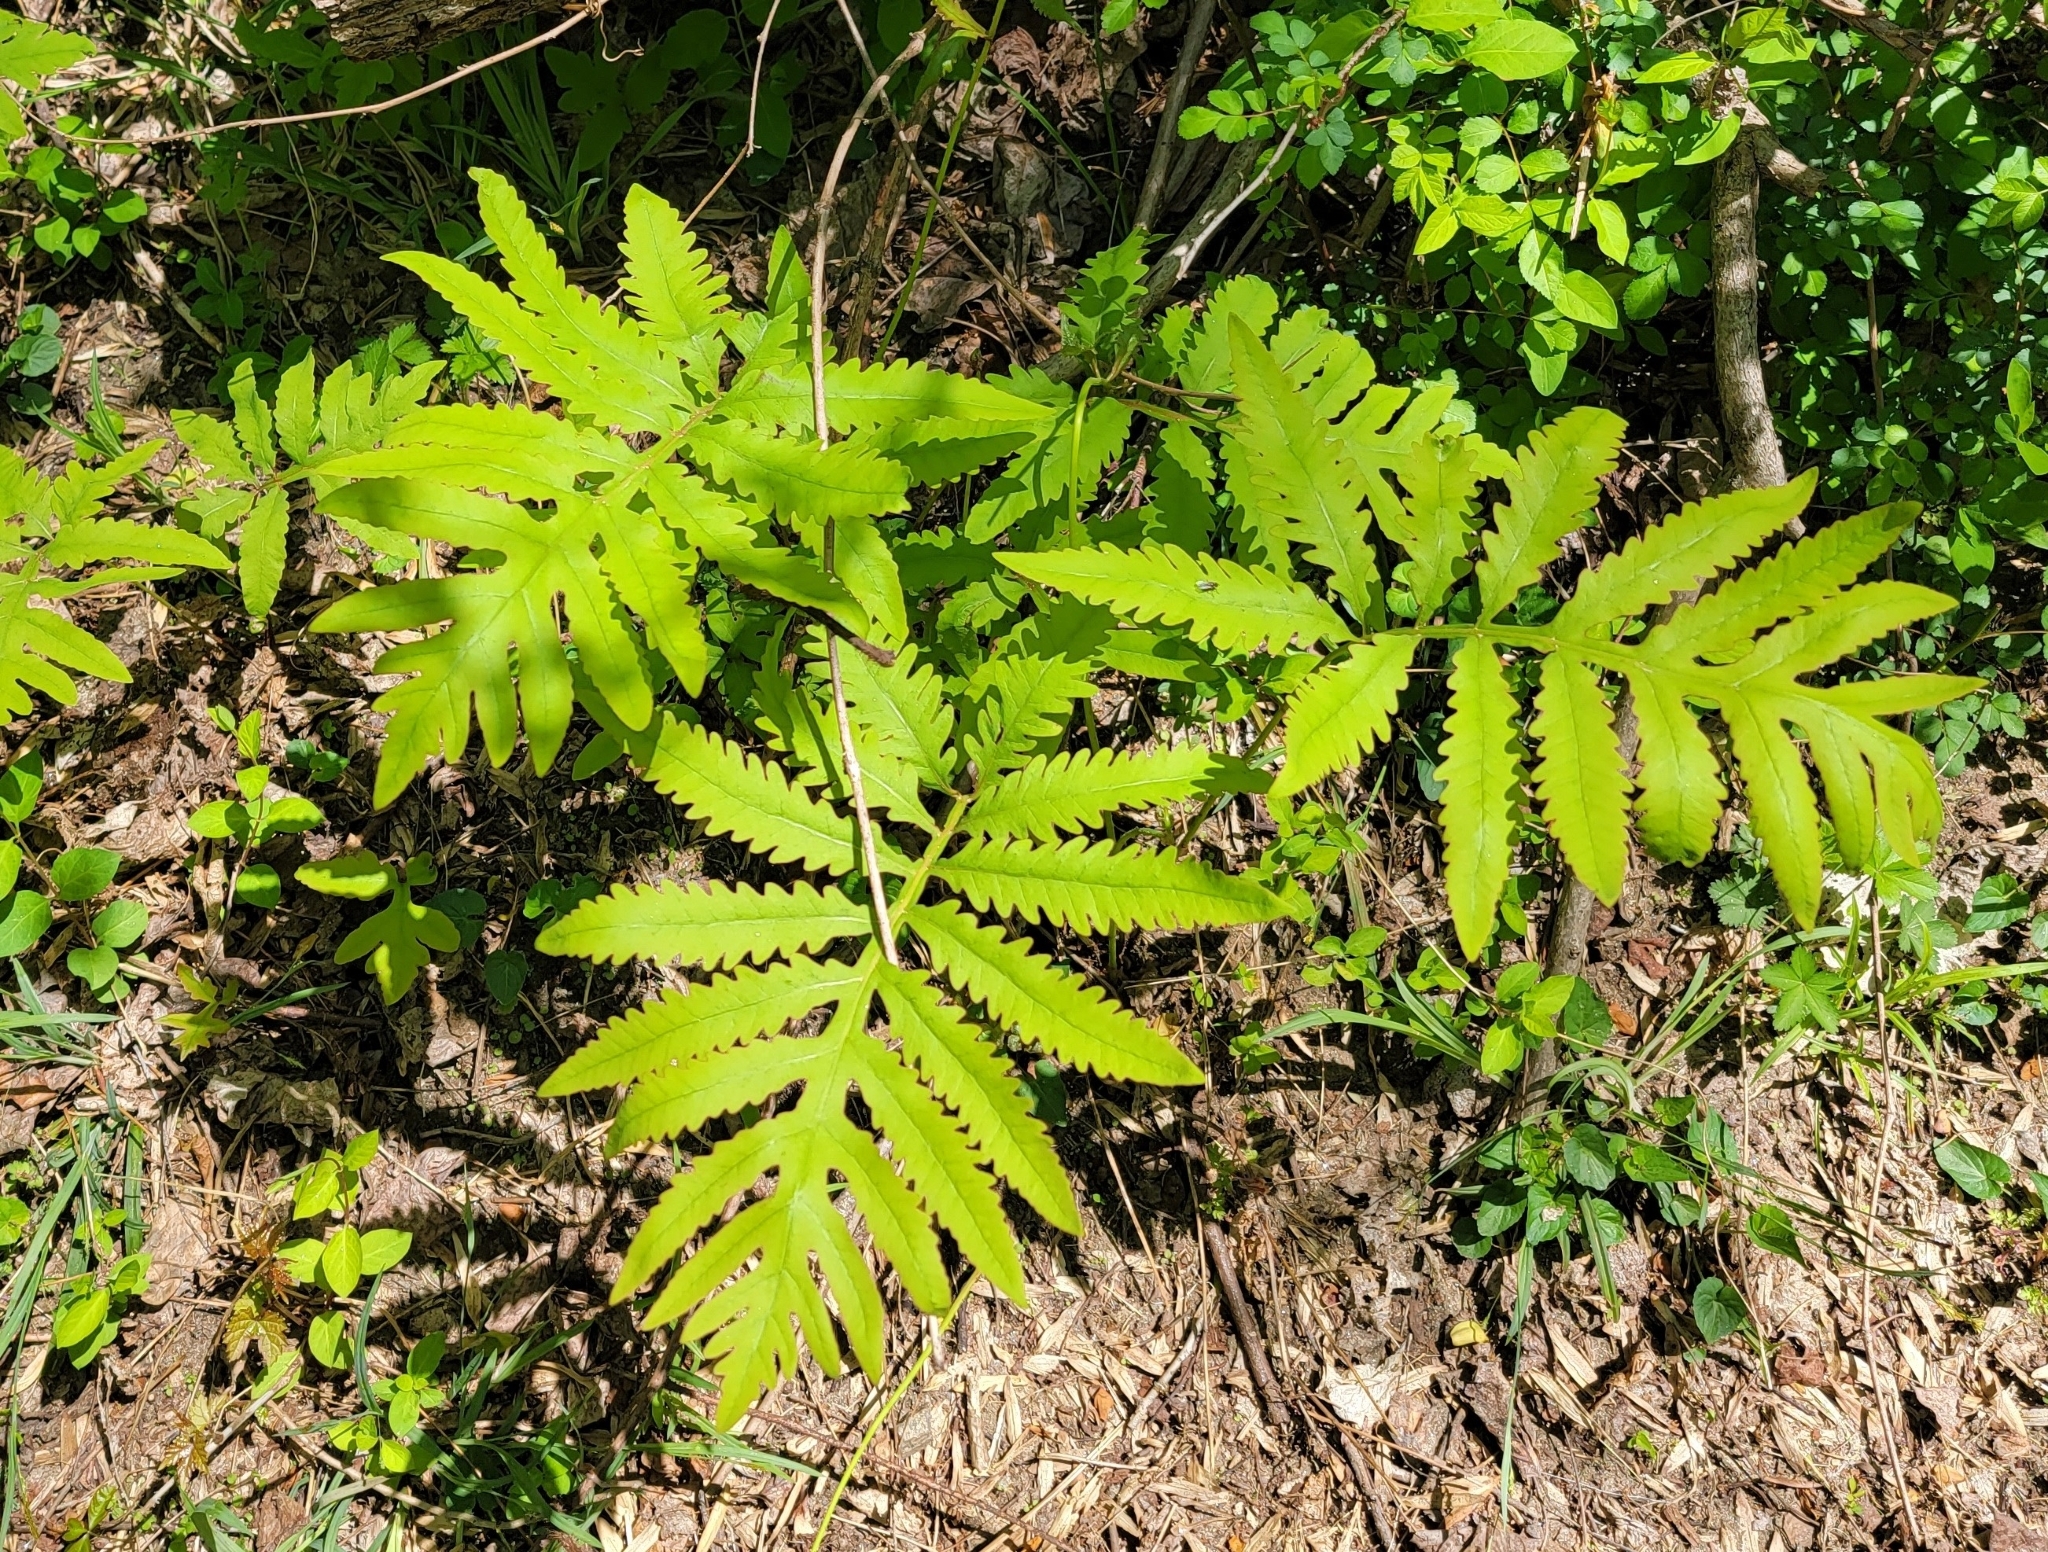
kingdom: Plantae
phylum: Tracheophyta
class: Polypodiopsida
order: Polypodiales
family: Onocleaceae
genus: Onoclea
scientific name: Onoclea sensibilis
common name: Sensitive fern
